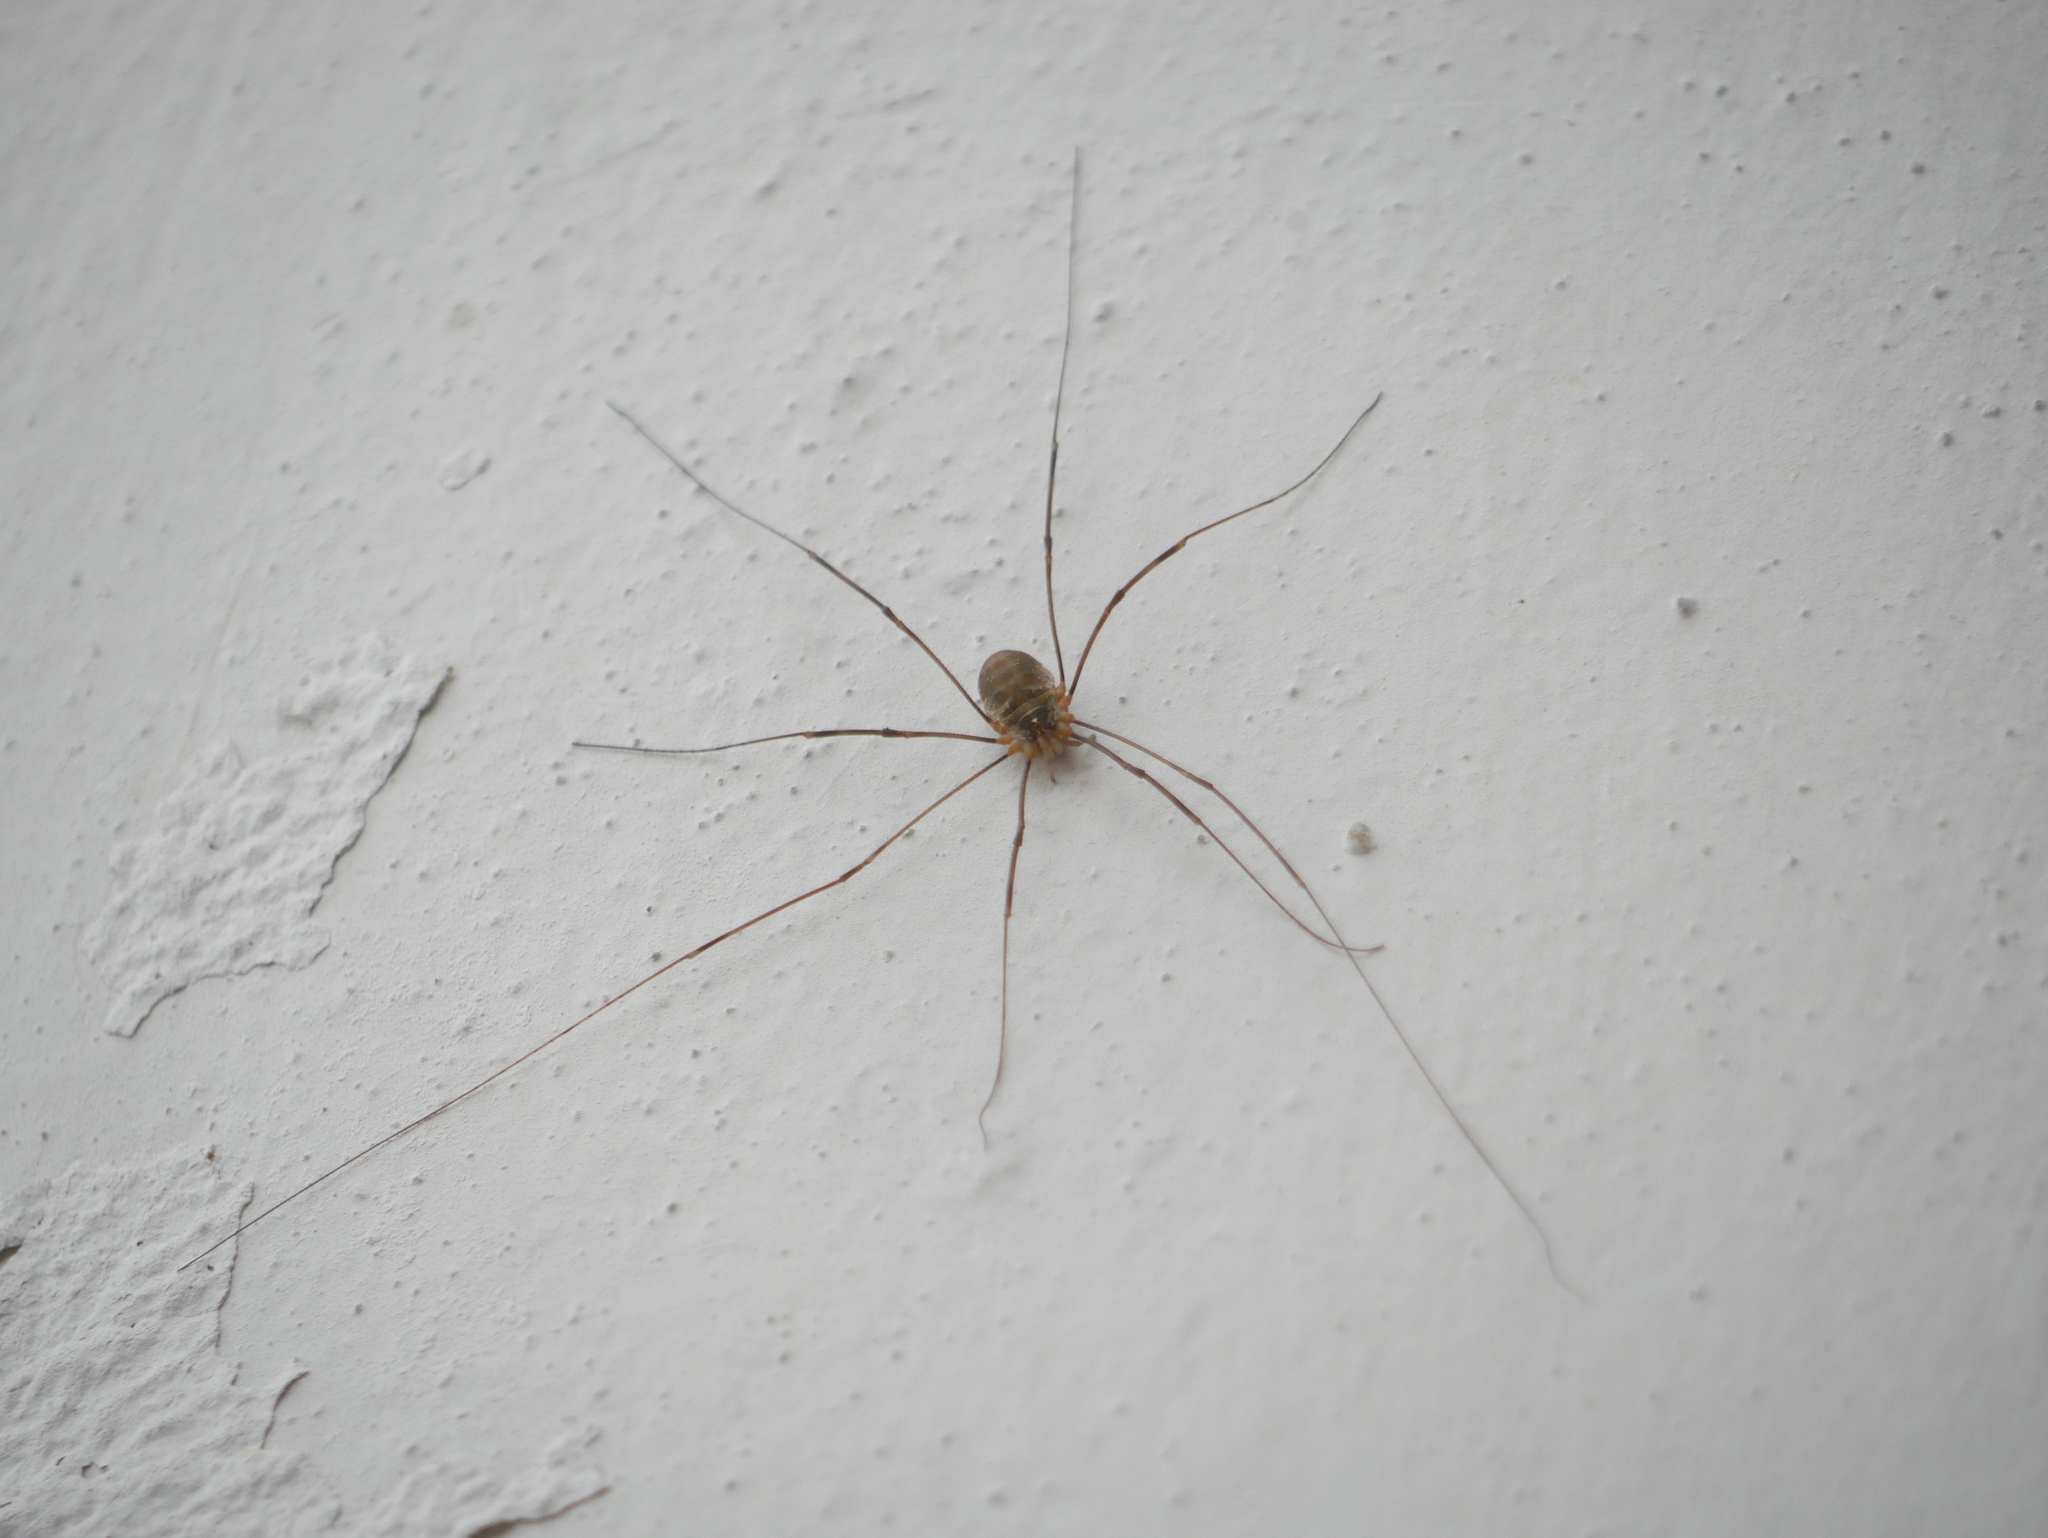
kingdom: Animalia
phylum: Arthropoda
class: Arachnida
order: Opiliones
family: Phalangiidae
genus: Opilio
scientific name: Opilio canestrinii
